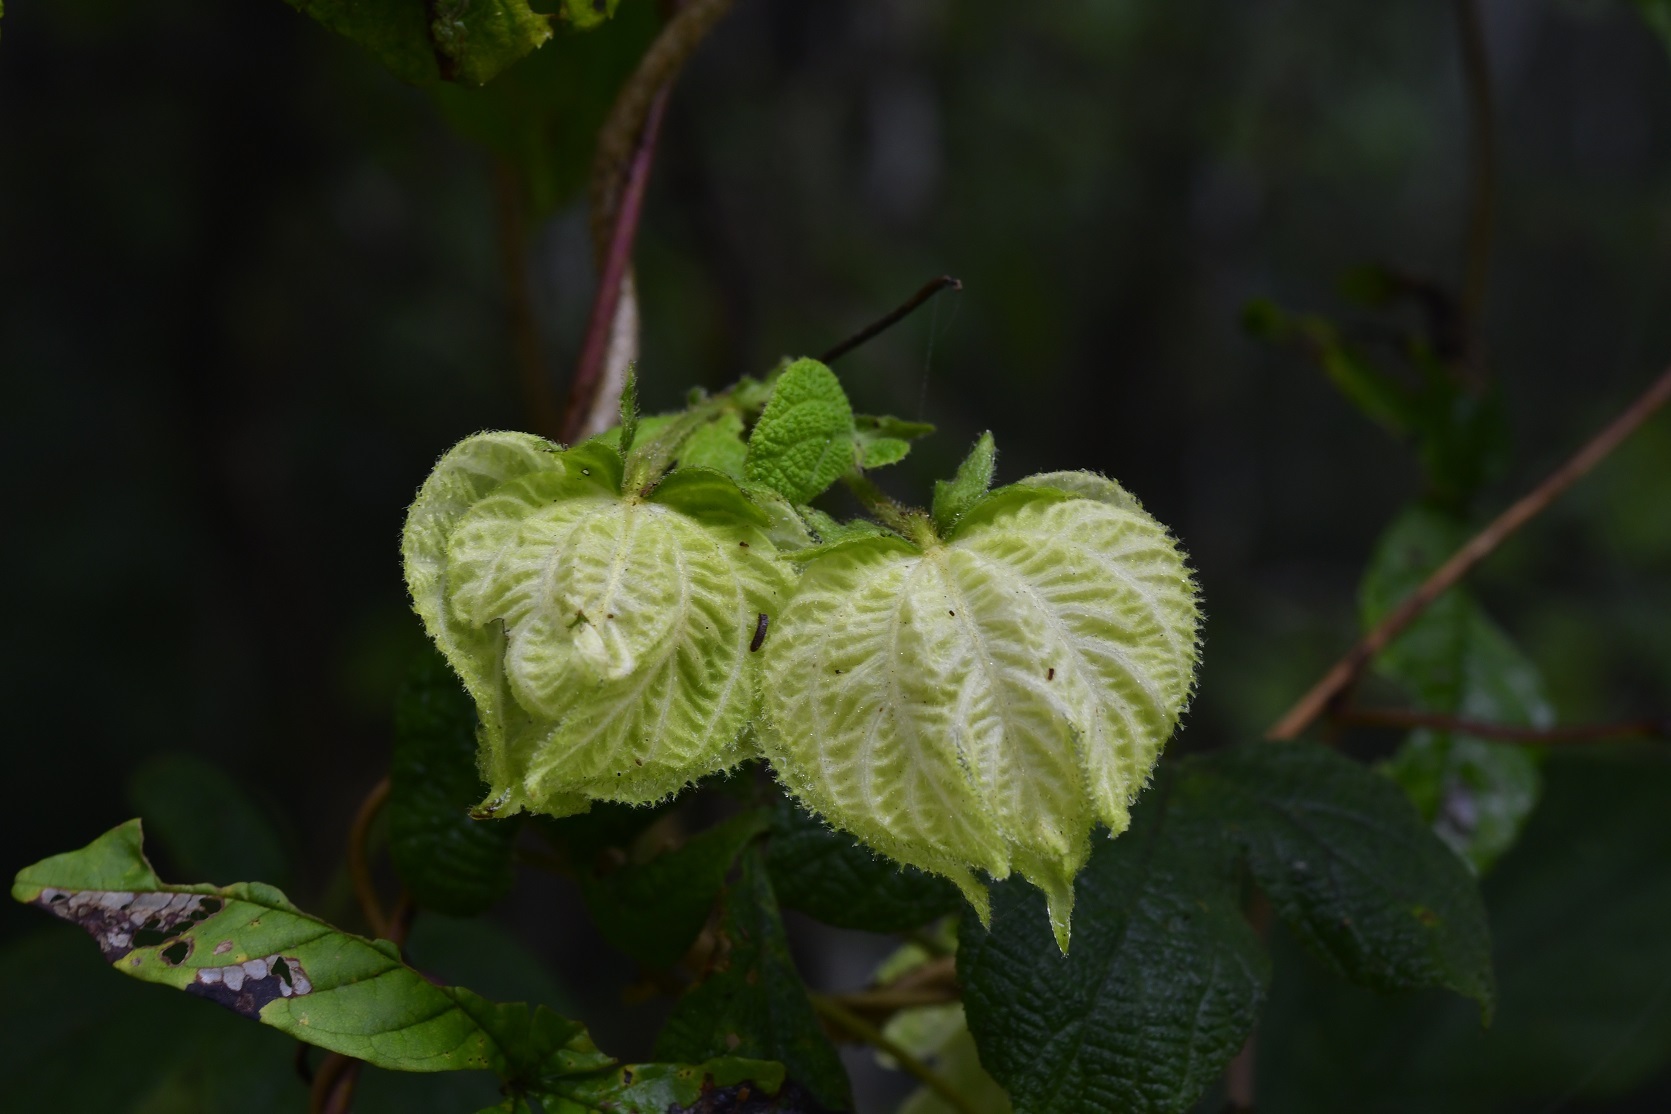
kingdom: Plantae
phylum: Tracheophyta
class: Magnoliopsida
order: Malpighiales
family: Euphorbiaceae
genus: Dalechampia
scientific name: Dalechampia scandens
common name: Spurgecreeper
